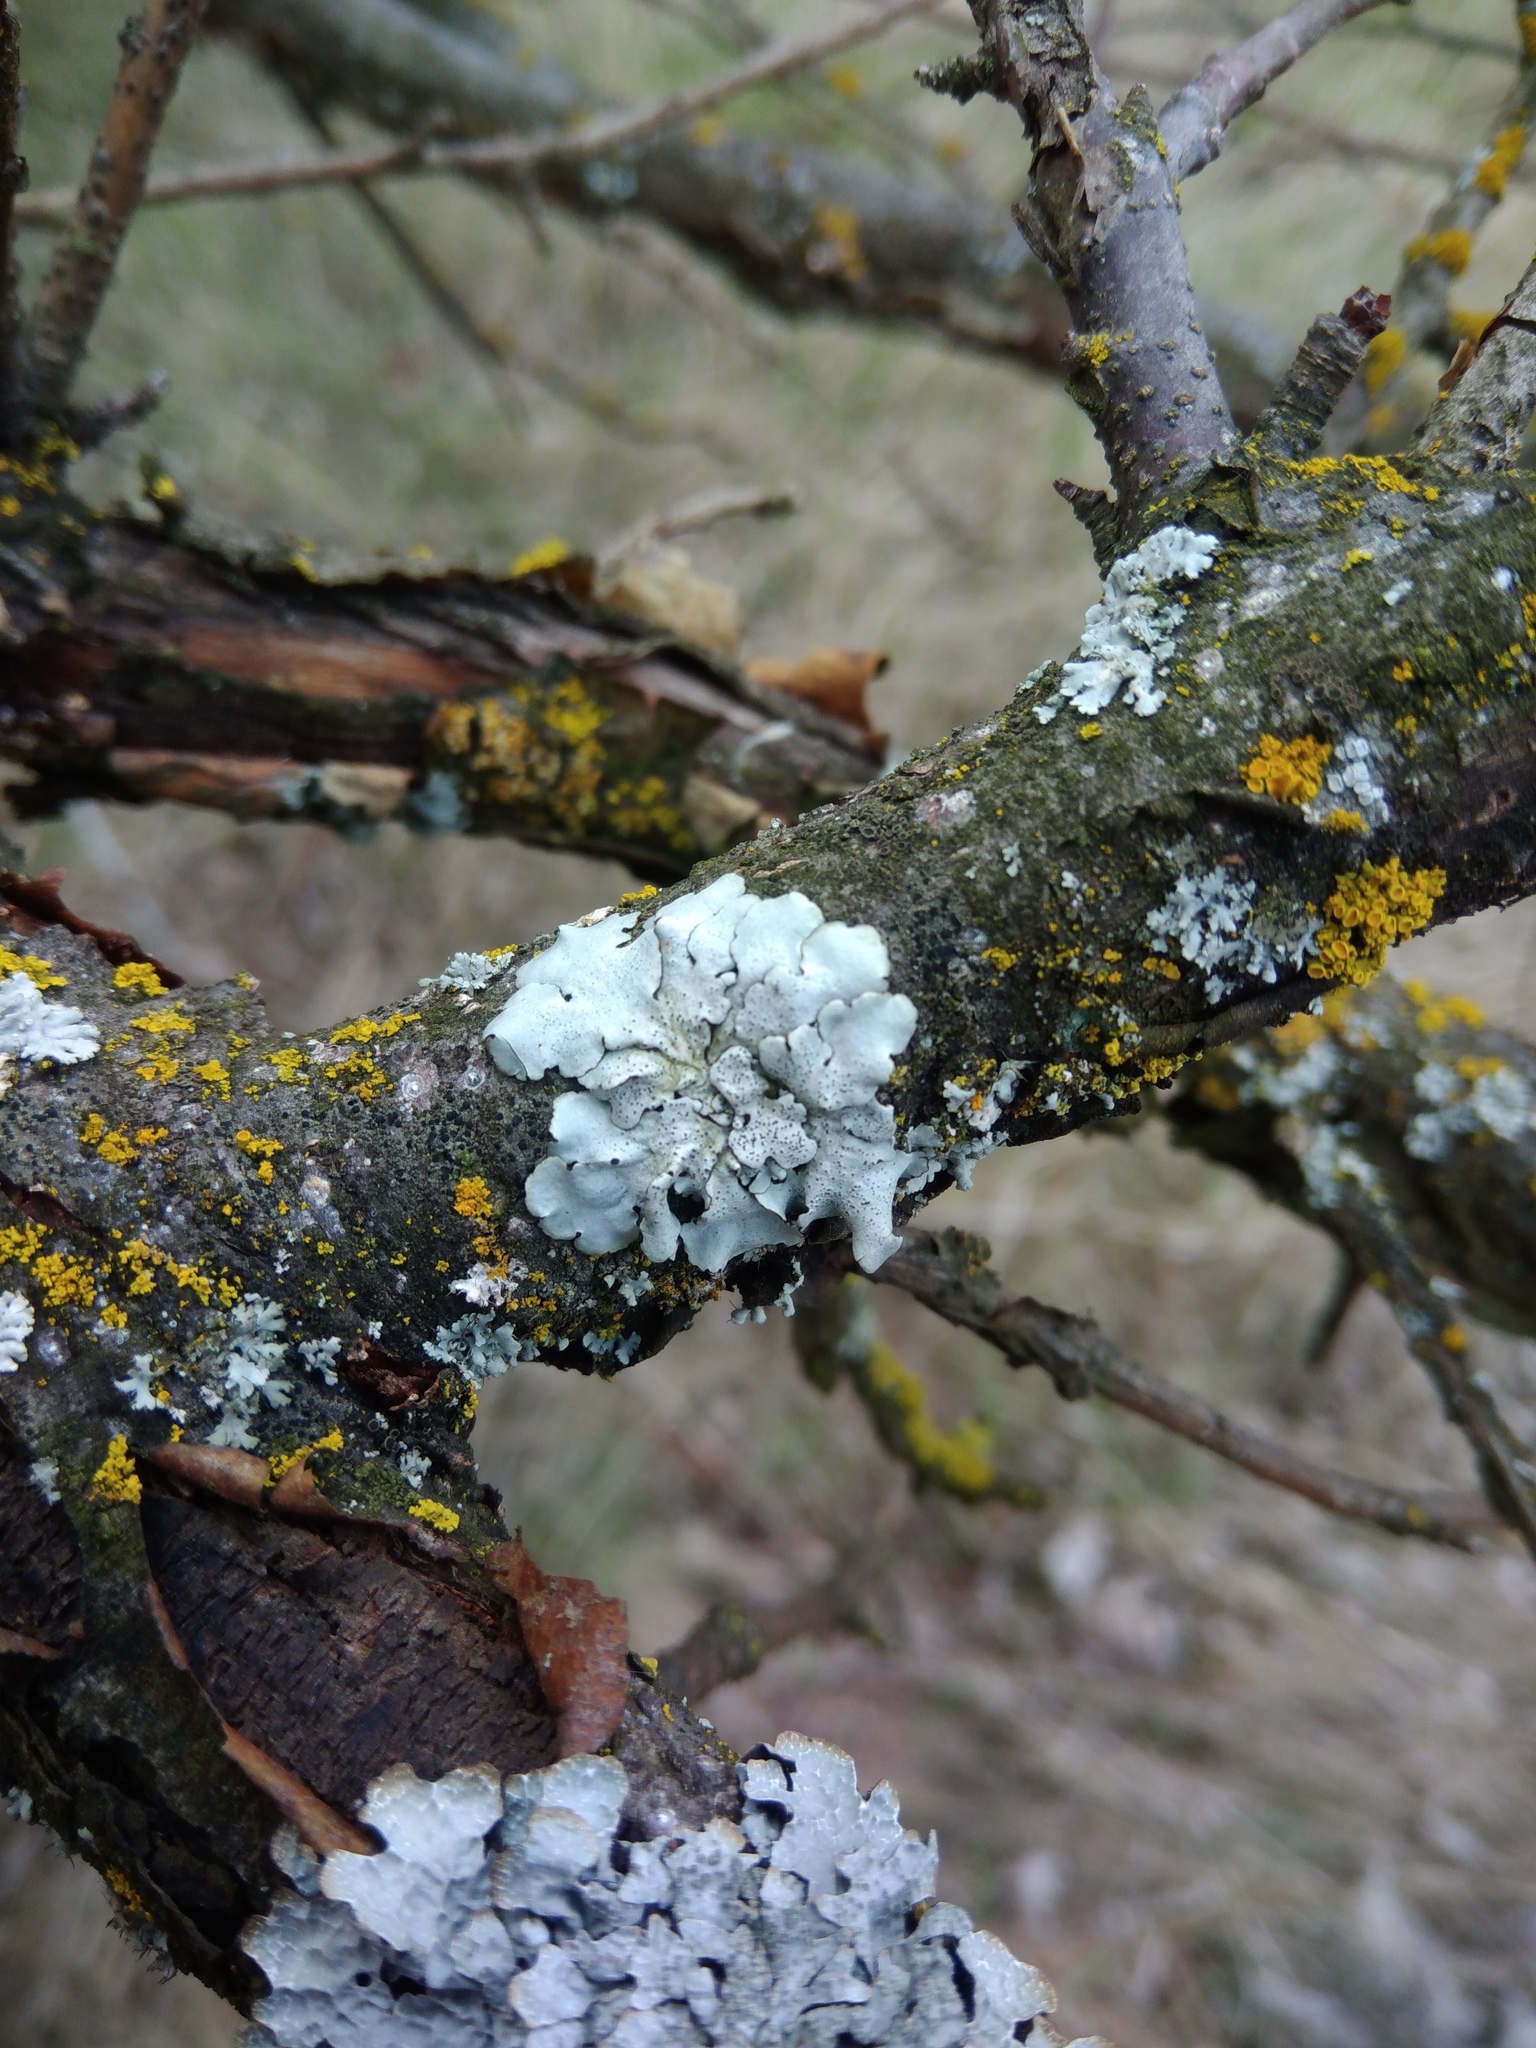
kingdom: Fungi
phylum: Ascomycota
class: Lecanoromycetes
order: Lecanorales
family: Parmeliaceae
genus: Parmelina
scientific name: Parmelina tiliacea
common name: Linden shield lichen
